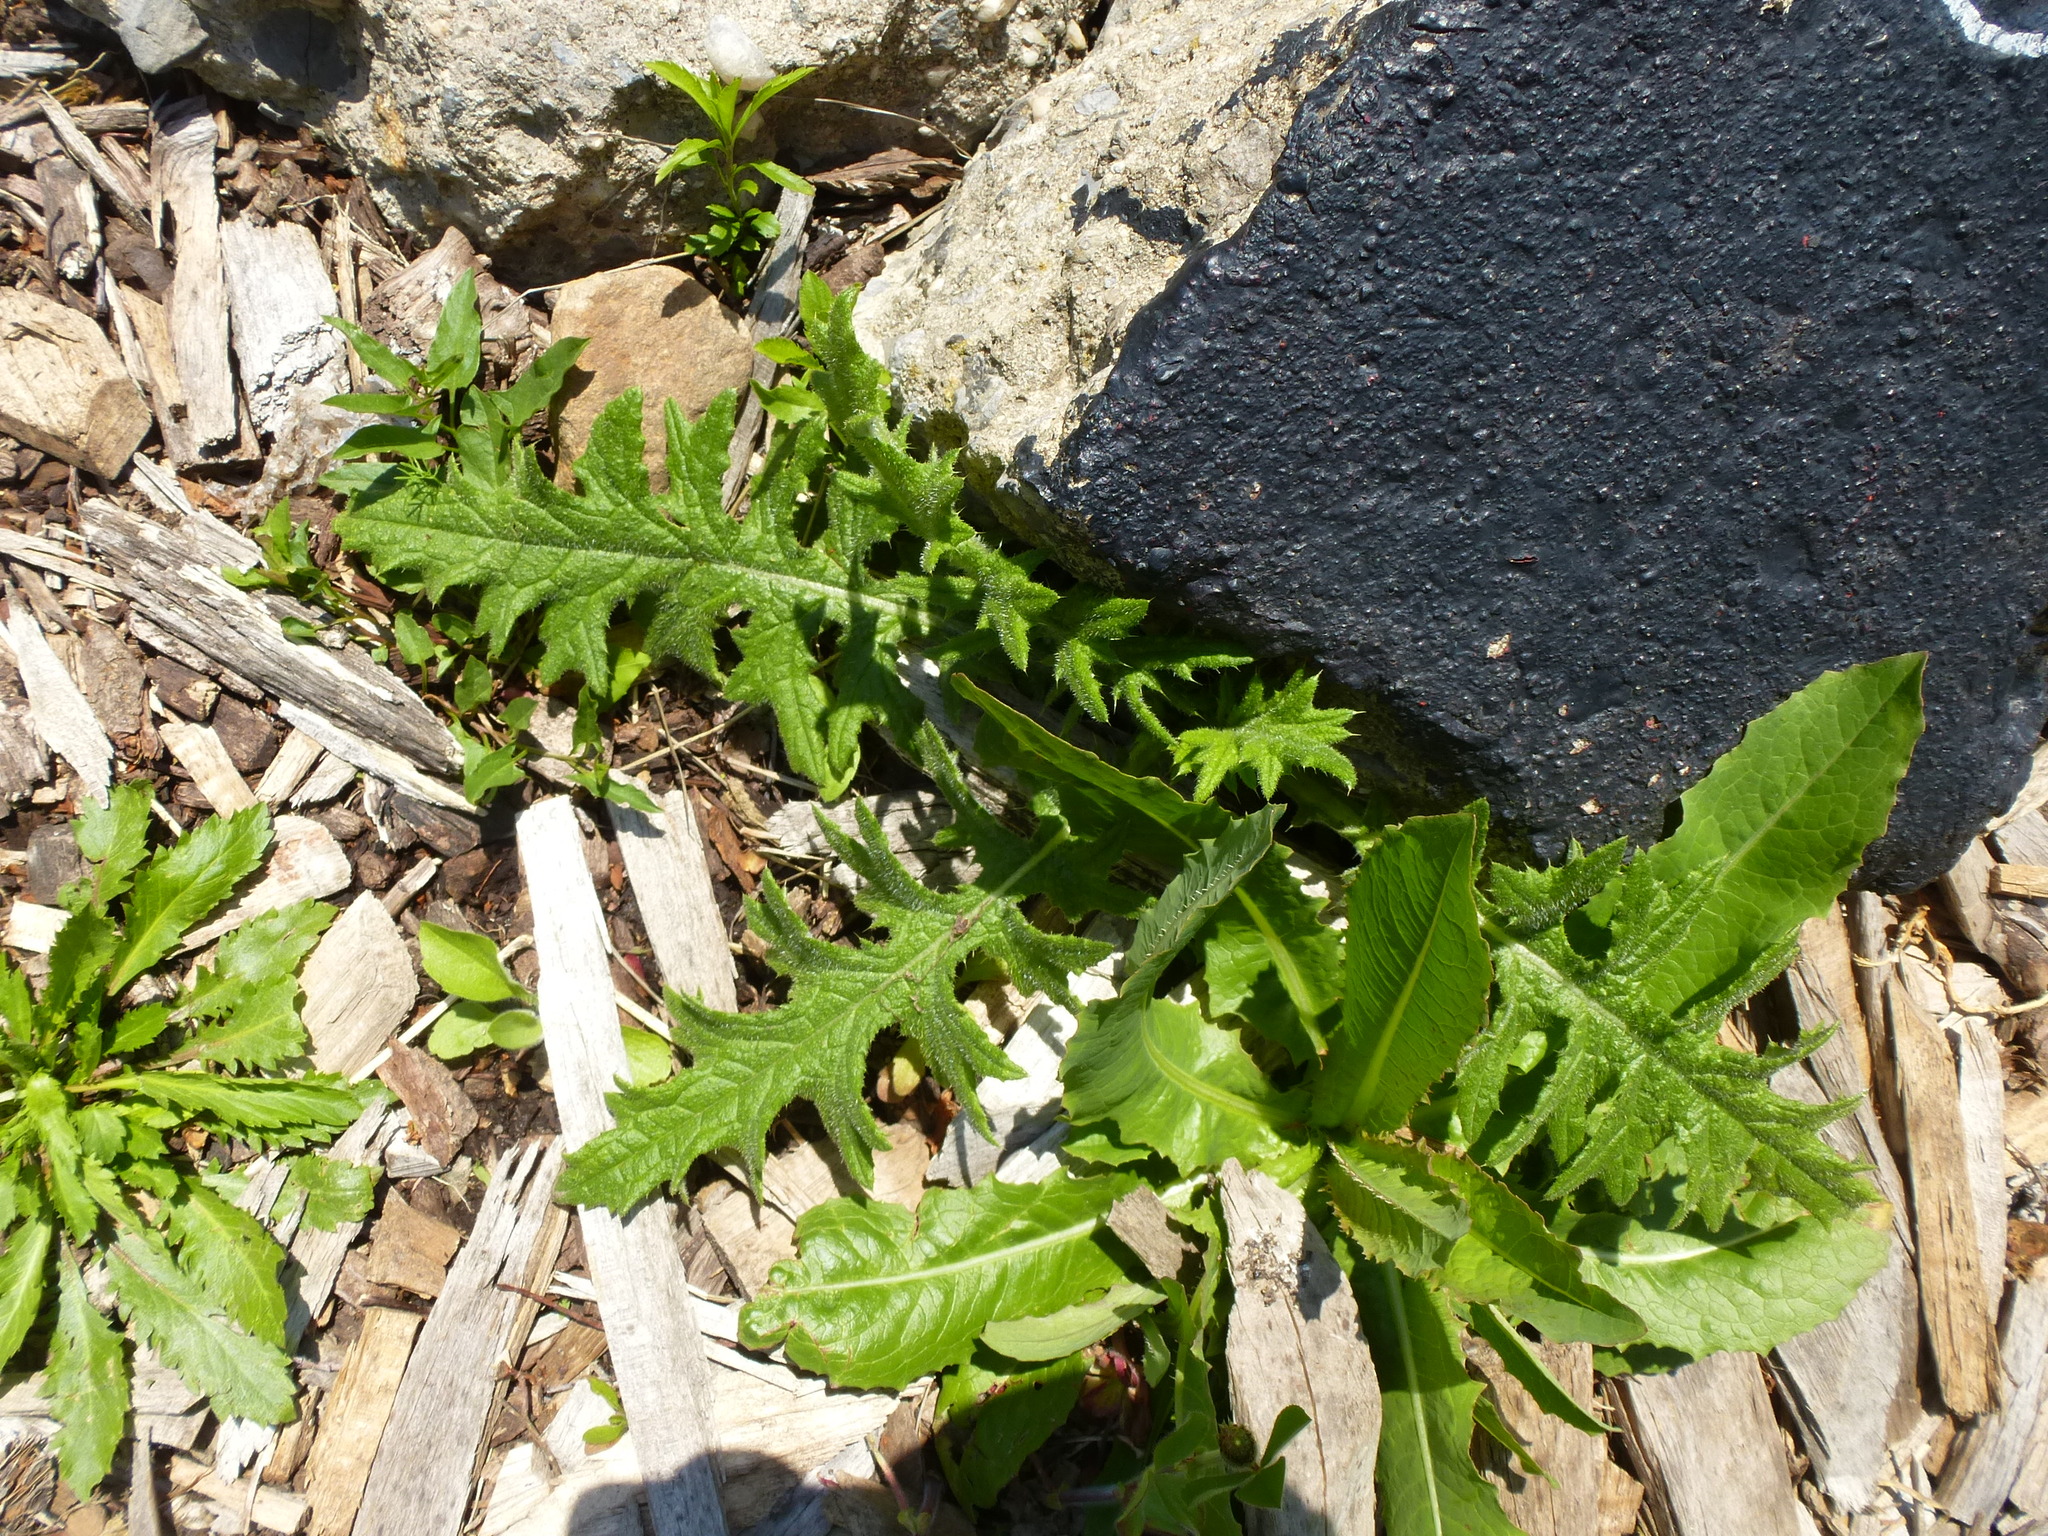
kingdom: Plantae
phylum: Tracheophyta
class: Magnoliopsida
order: Asterales
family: Asteraceae
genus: Cirsium
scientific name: Cirsium vulgare
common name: Bull thistle
